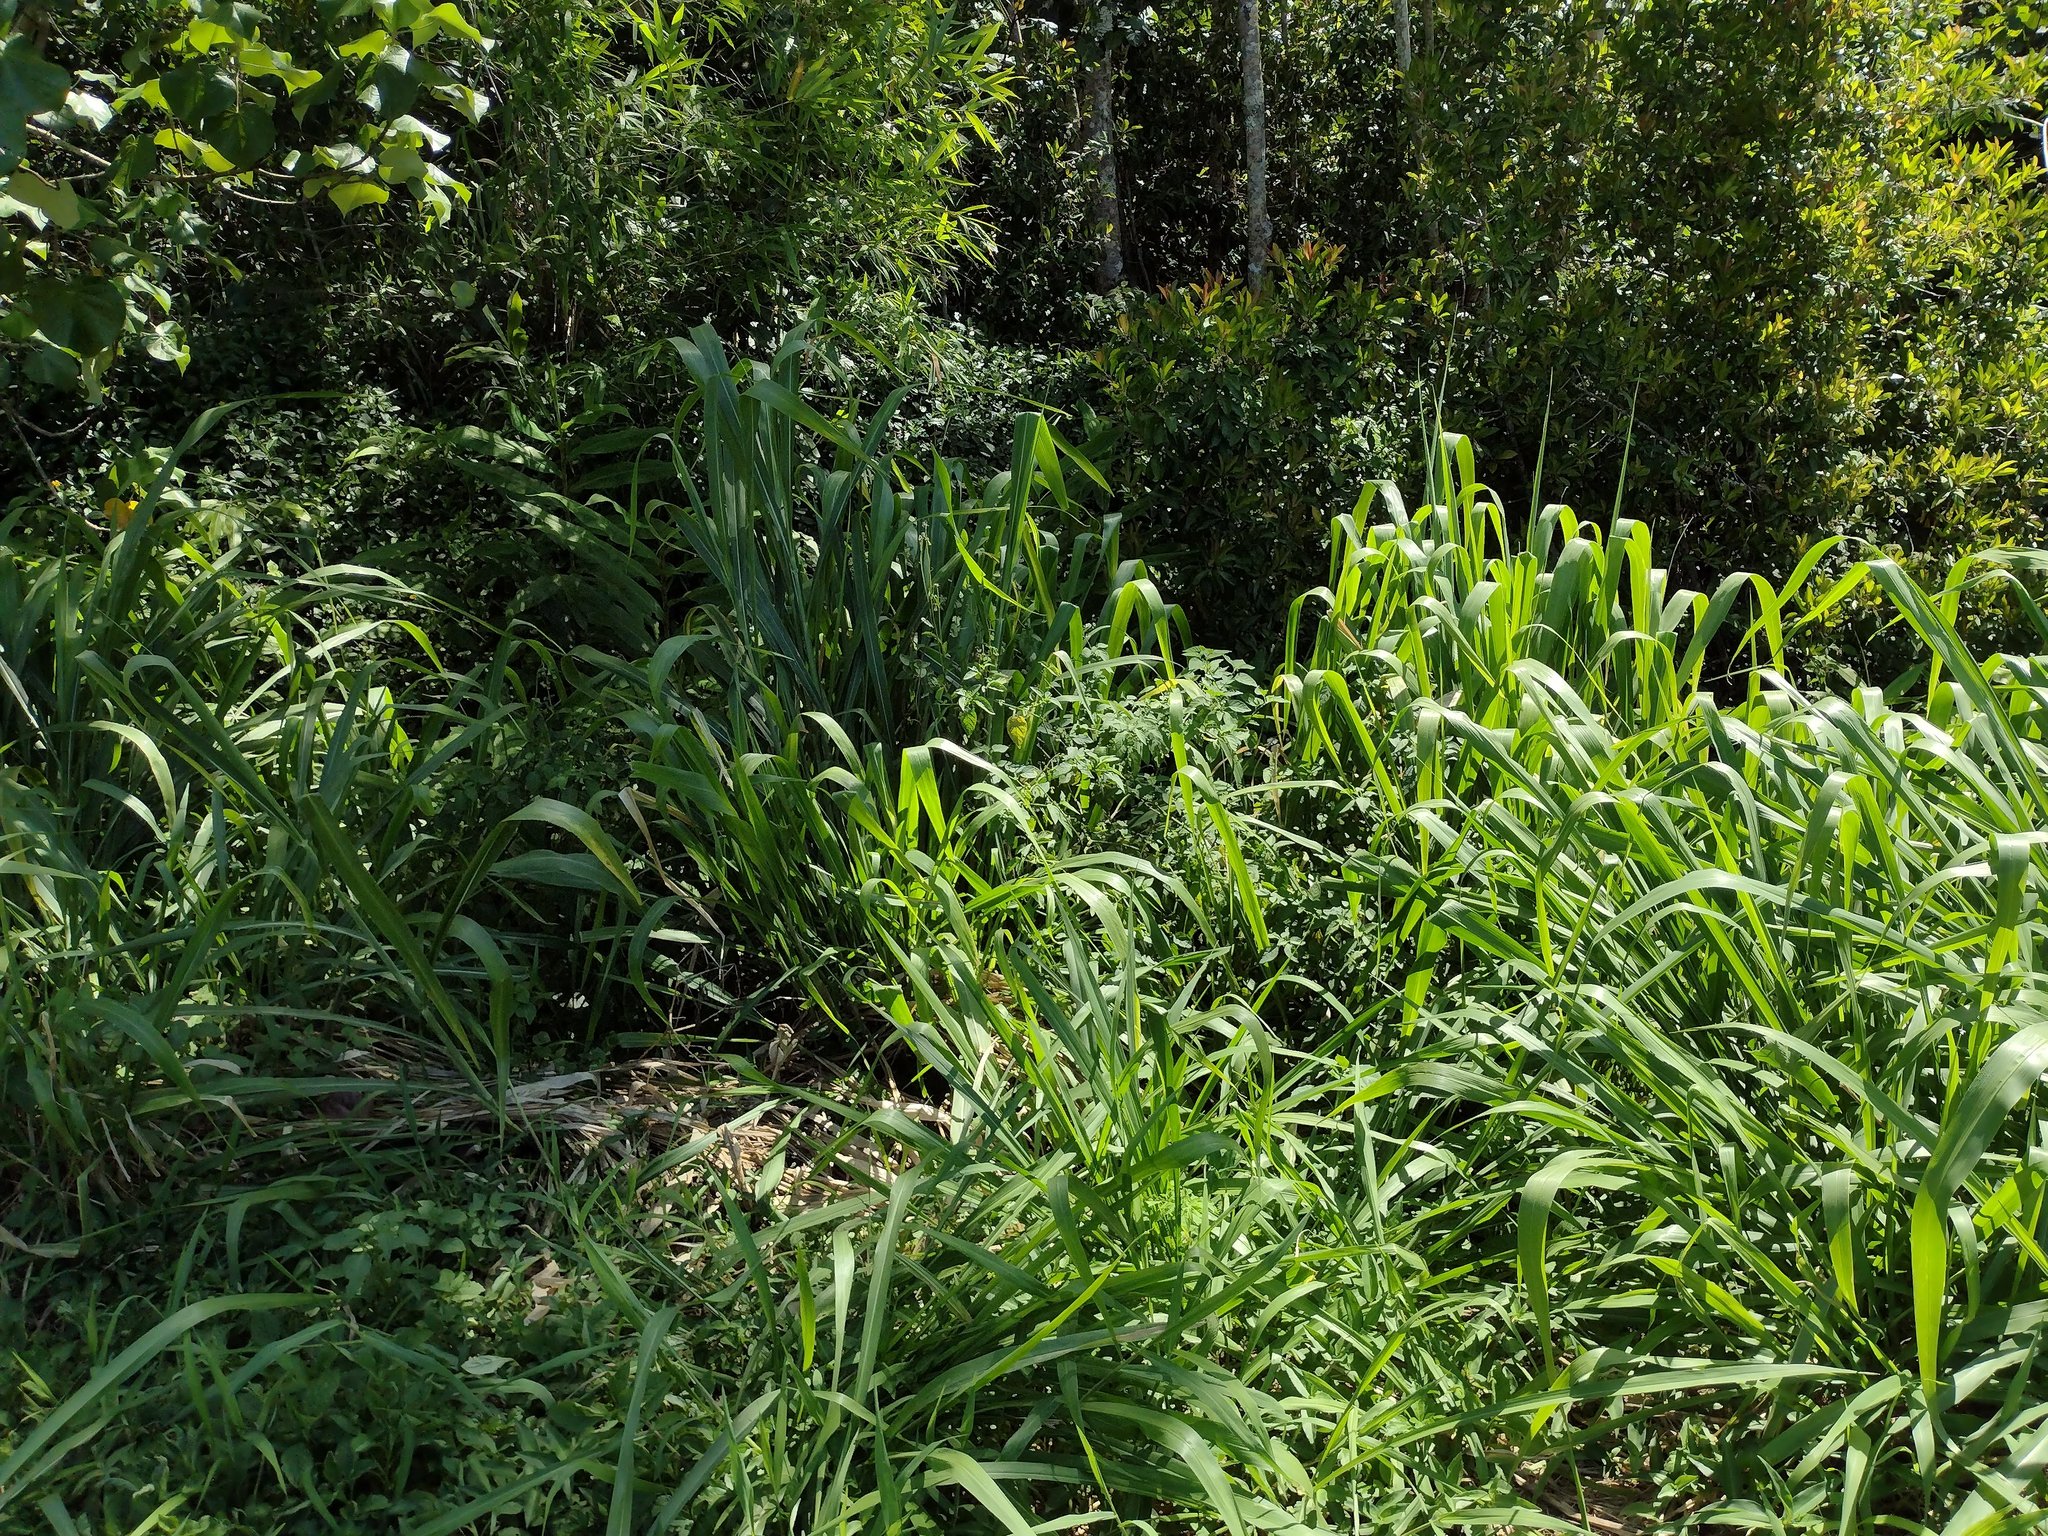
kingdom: Plantae
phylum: Tracheophyta
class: Liliopsida
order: Poales
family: Poaceae
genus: Megathyrsus
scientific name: Megathyrsus maximus
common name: Guineagrass
